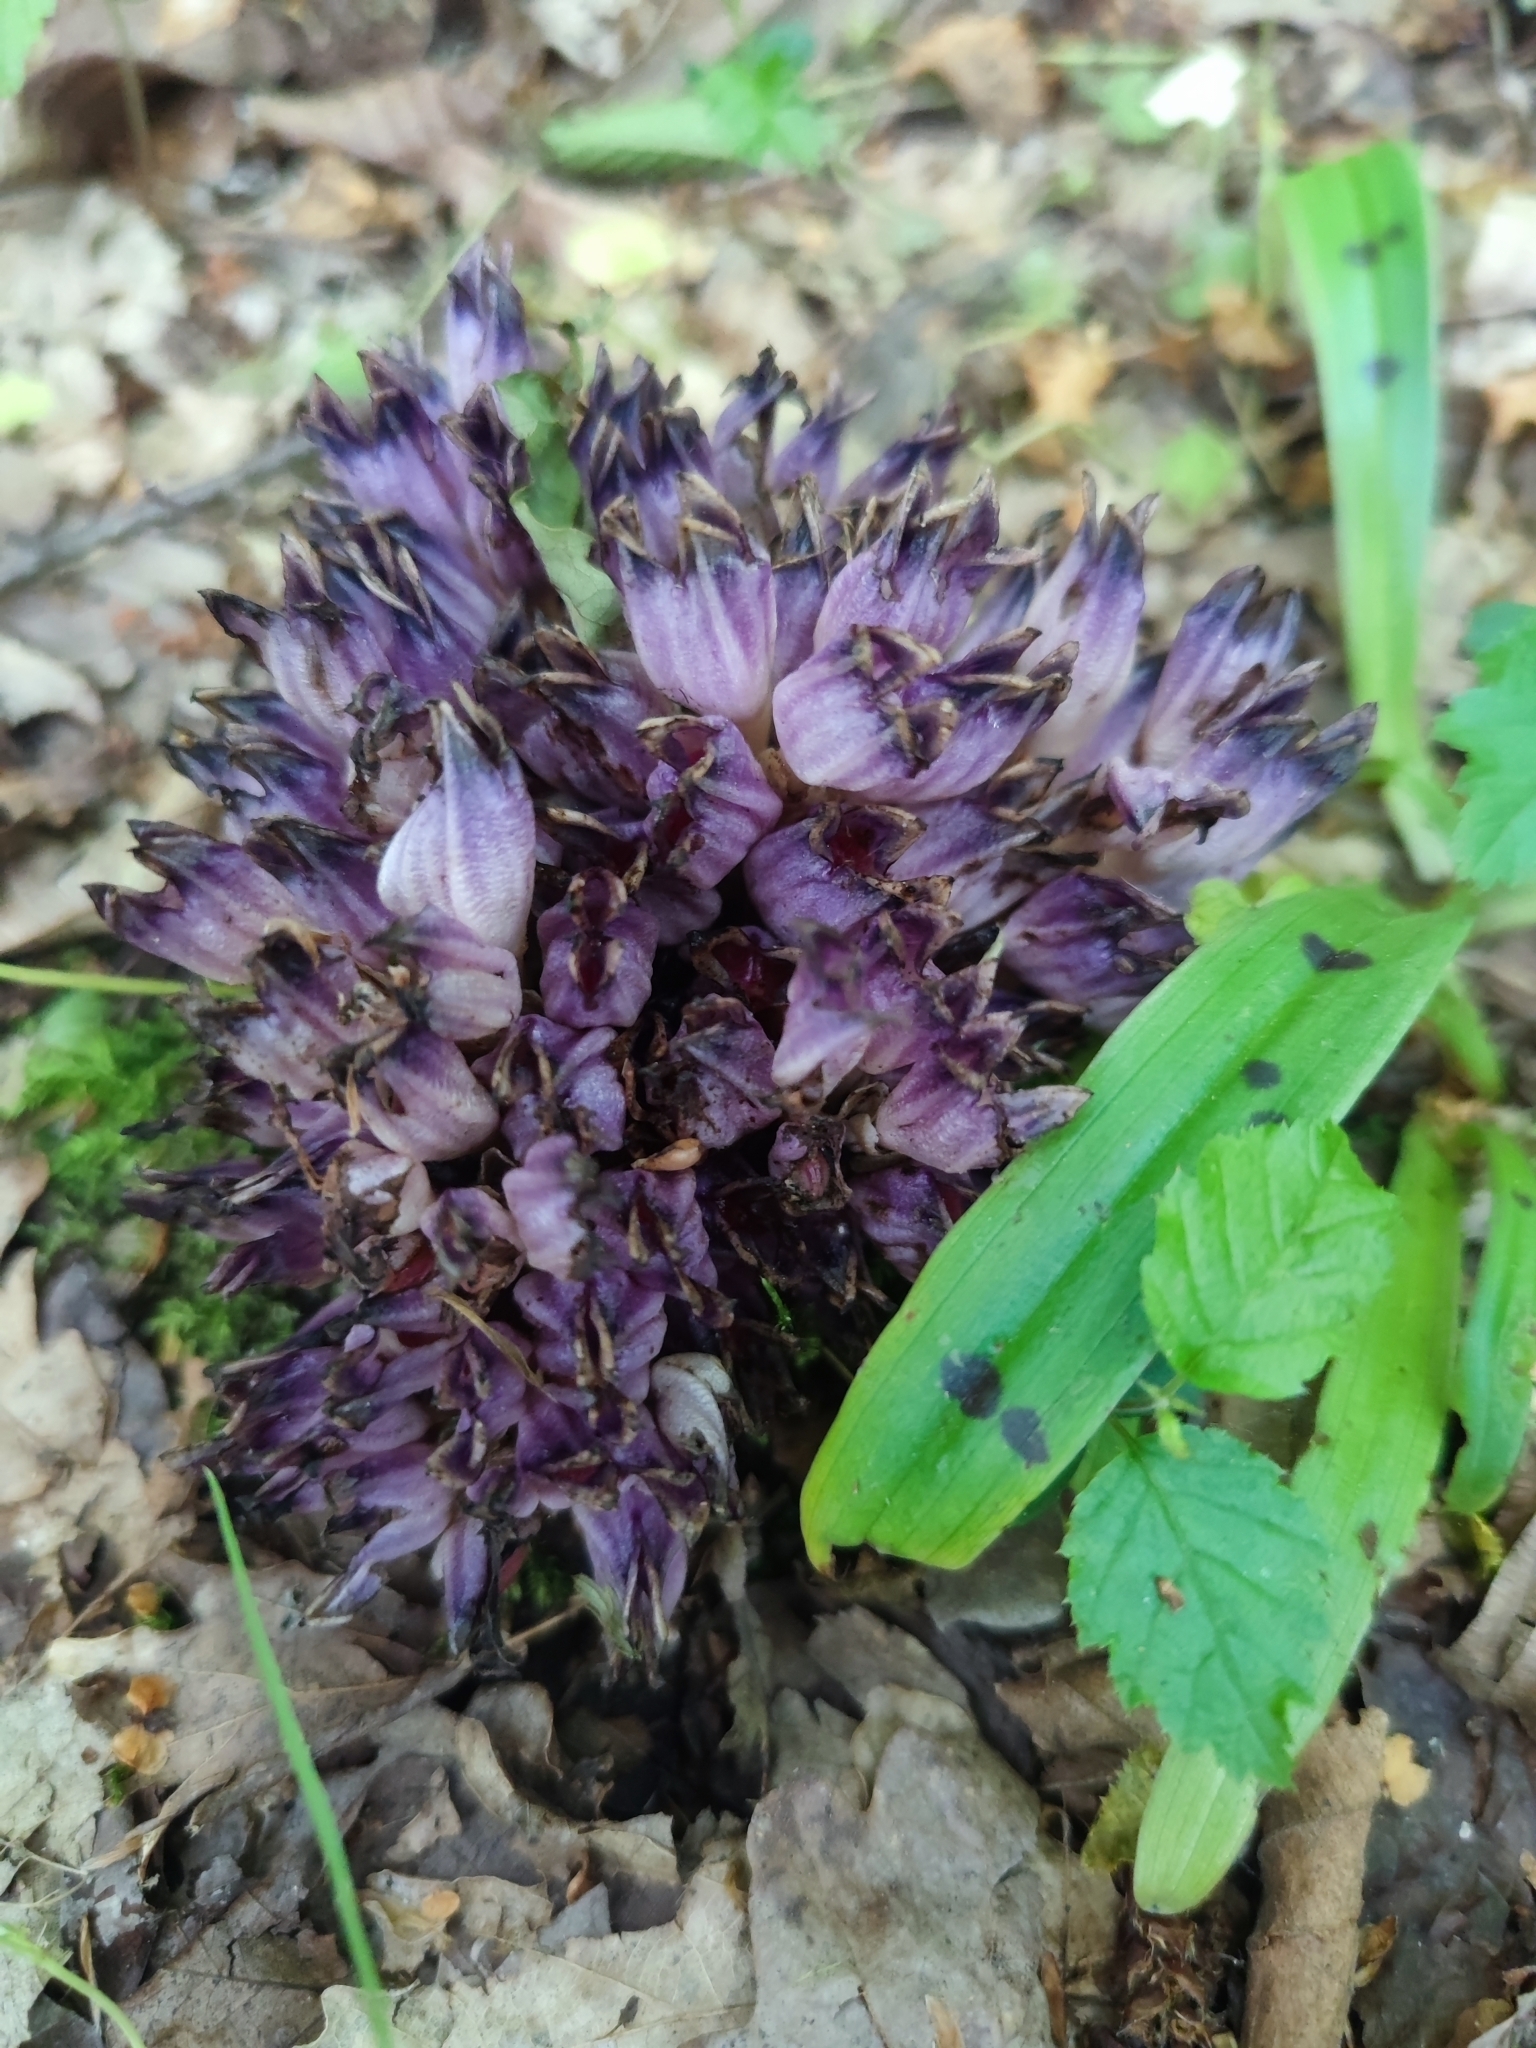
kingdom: Plantae
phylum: Tracheophyta
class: Magnoliopsida
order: Lamiales
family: Orobanchaceae
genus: Lathraea
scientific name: Lathraea clandestina
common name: Purple toothwort
